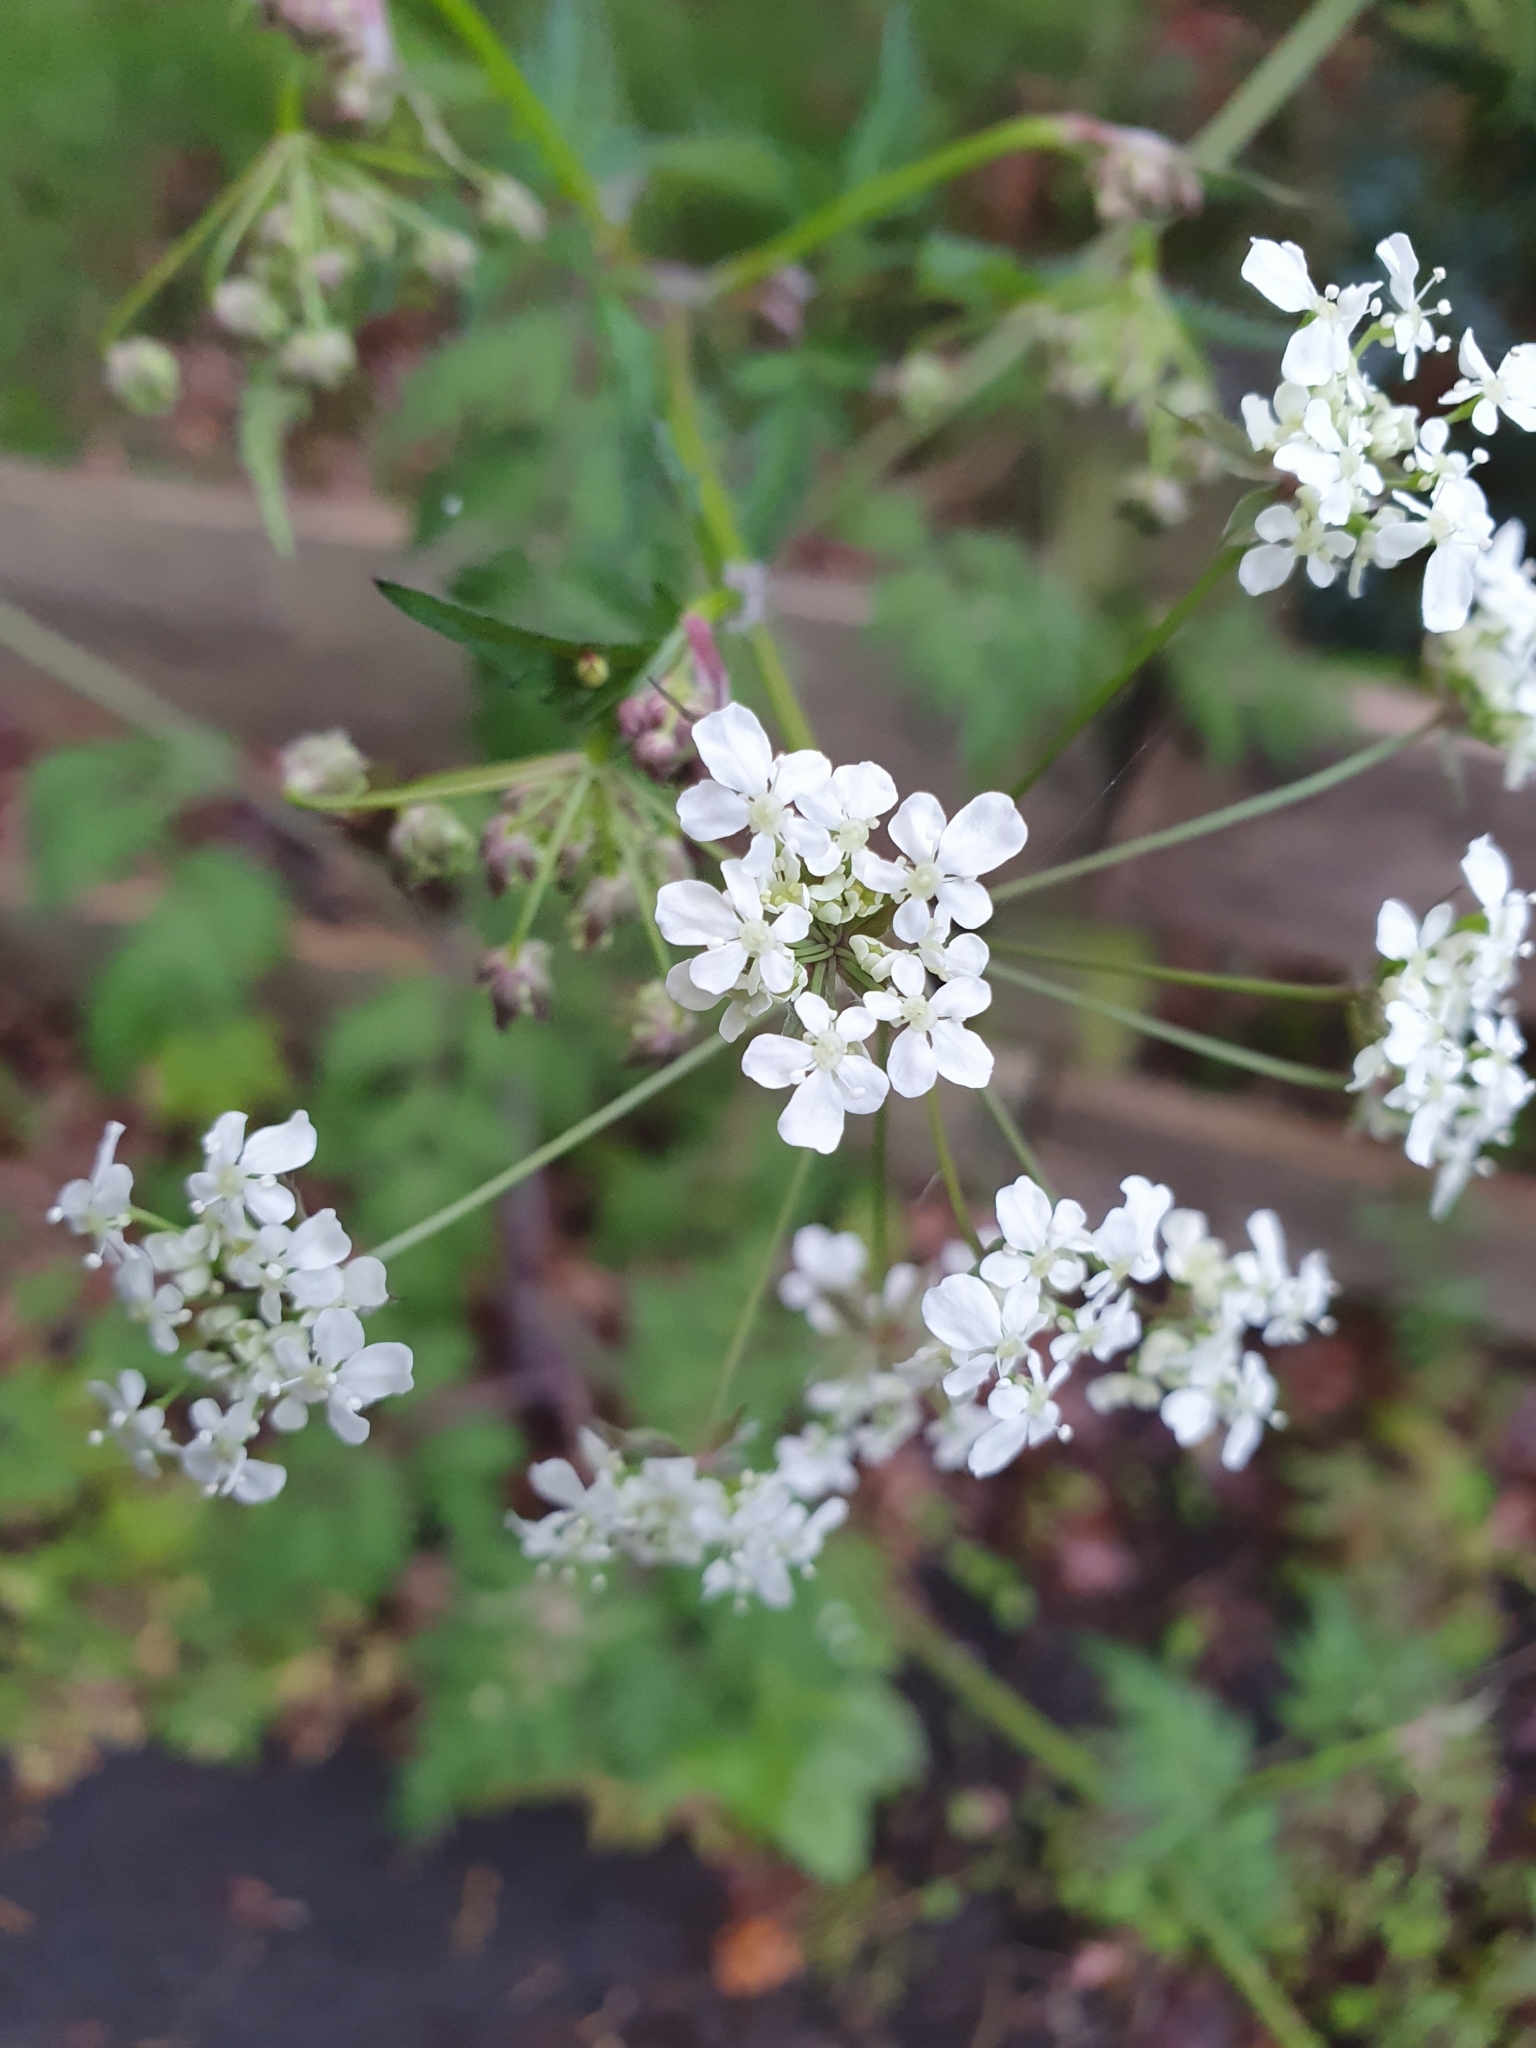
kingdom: Plantae
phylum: Tracheophyta
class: Magnoliopsida
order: Apiales
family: Apiaceae
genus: Anthriscus
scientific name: Anthriscus sylvestris
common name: Cow parsley
